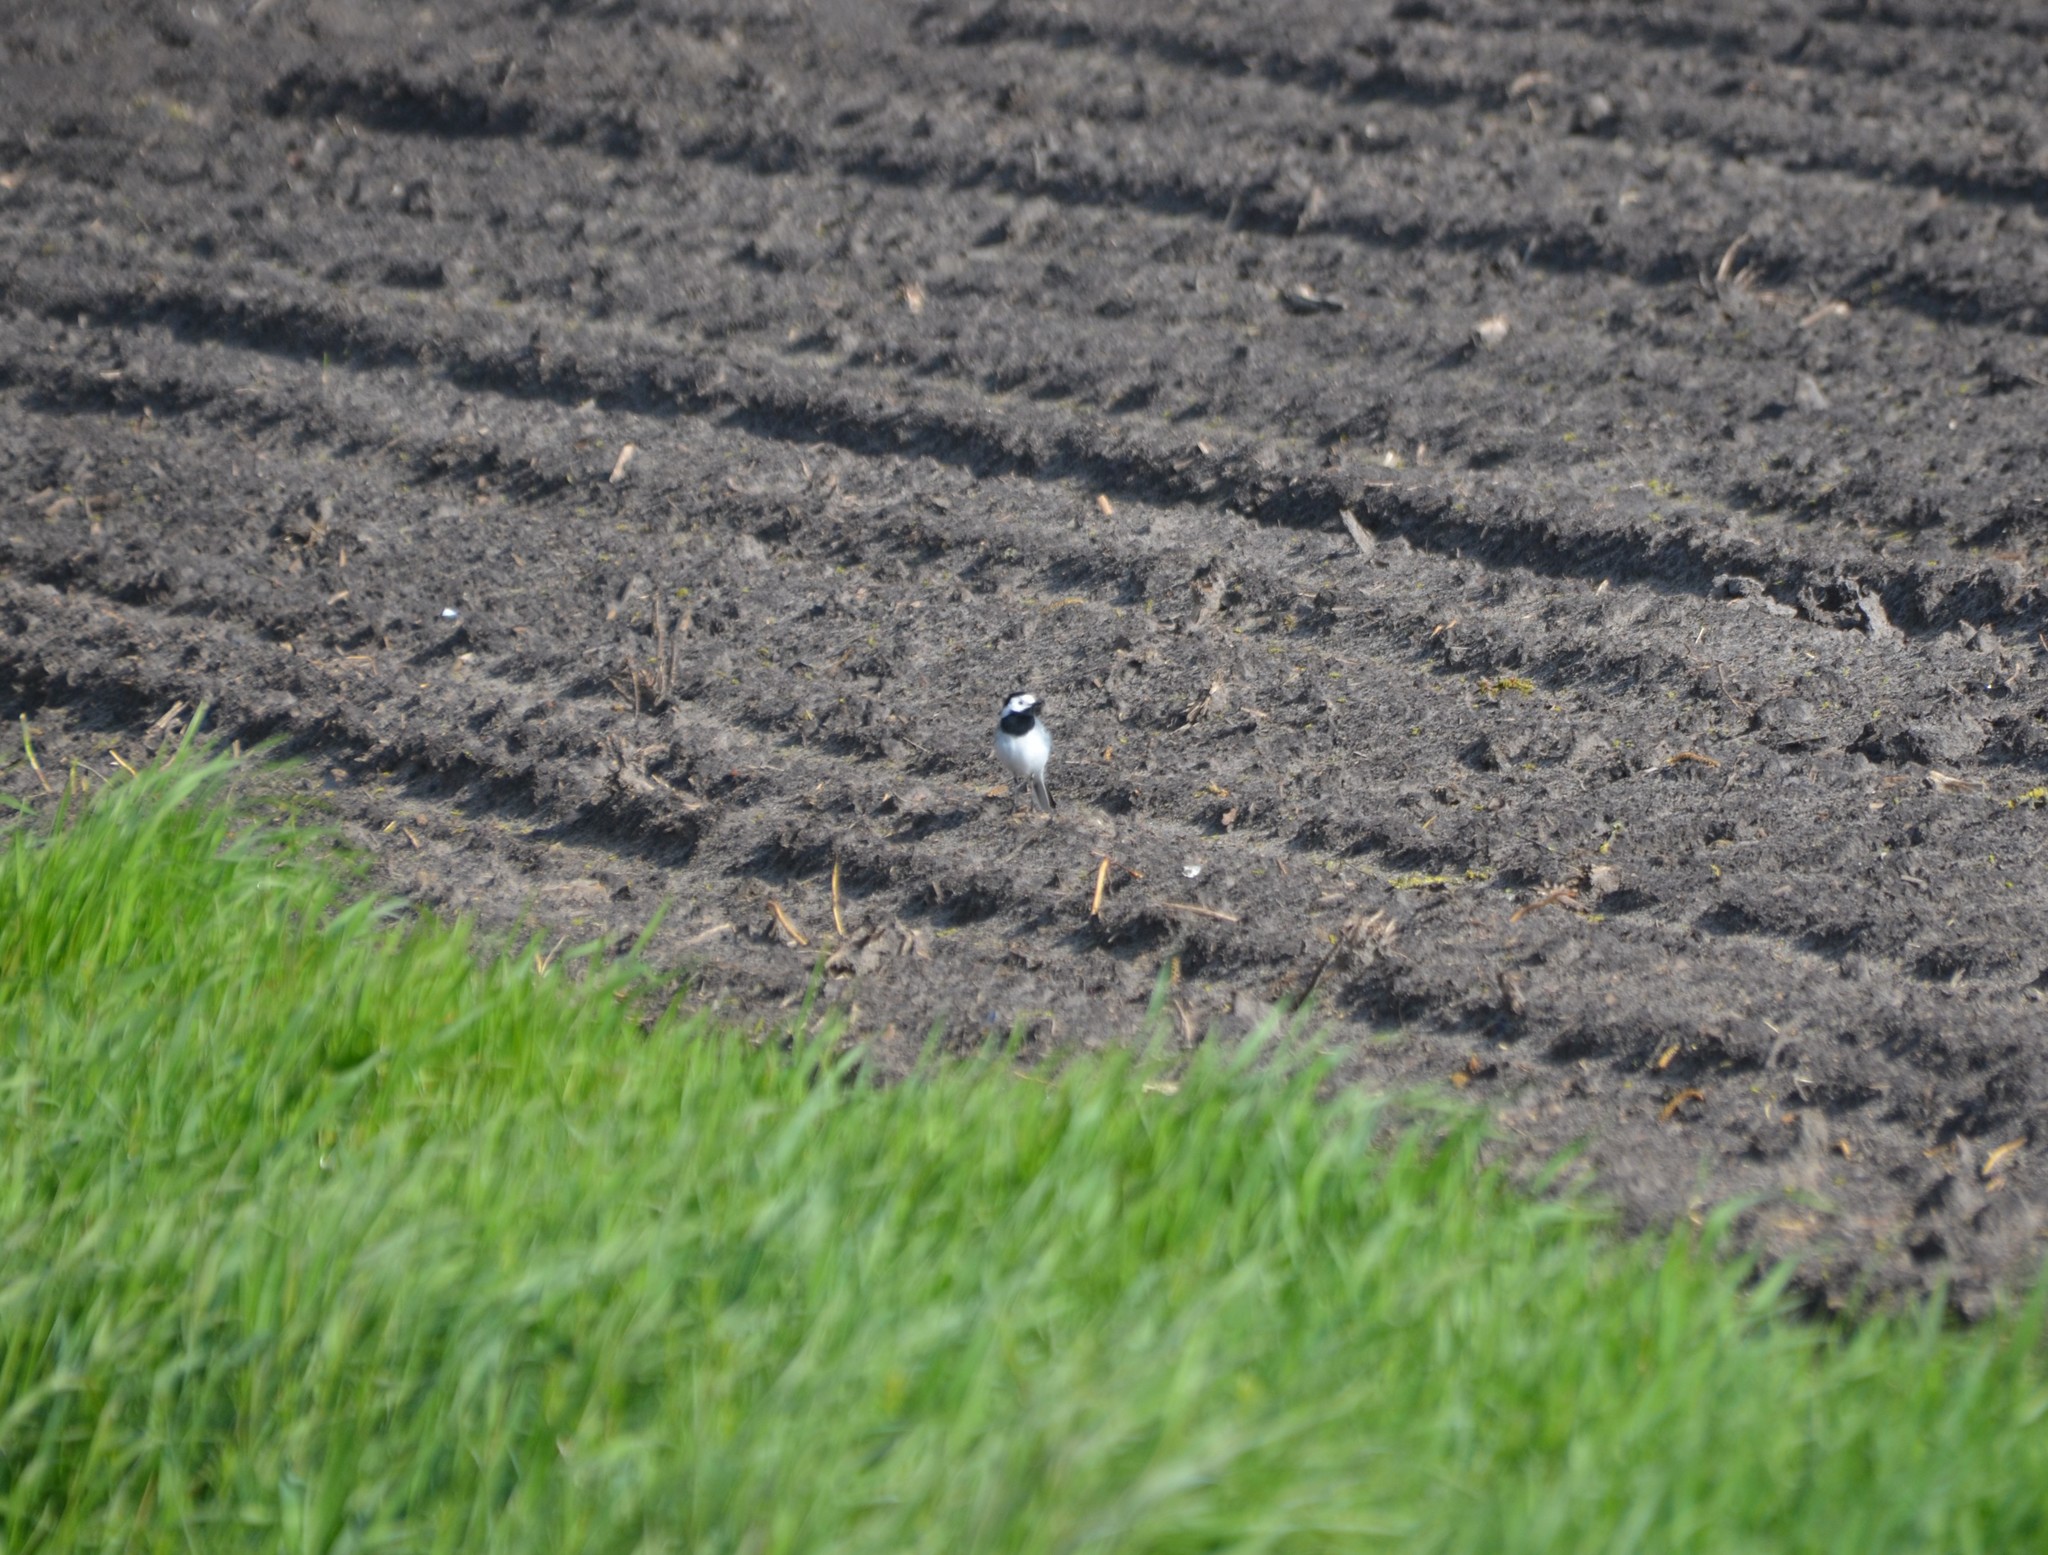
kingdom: Animalia
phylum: Chordata
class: Aves
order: Passeriformes
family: Motacillidae
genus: Motacilla
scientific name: Motacilla alba
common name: White wagtail
